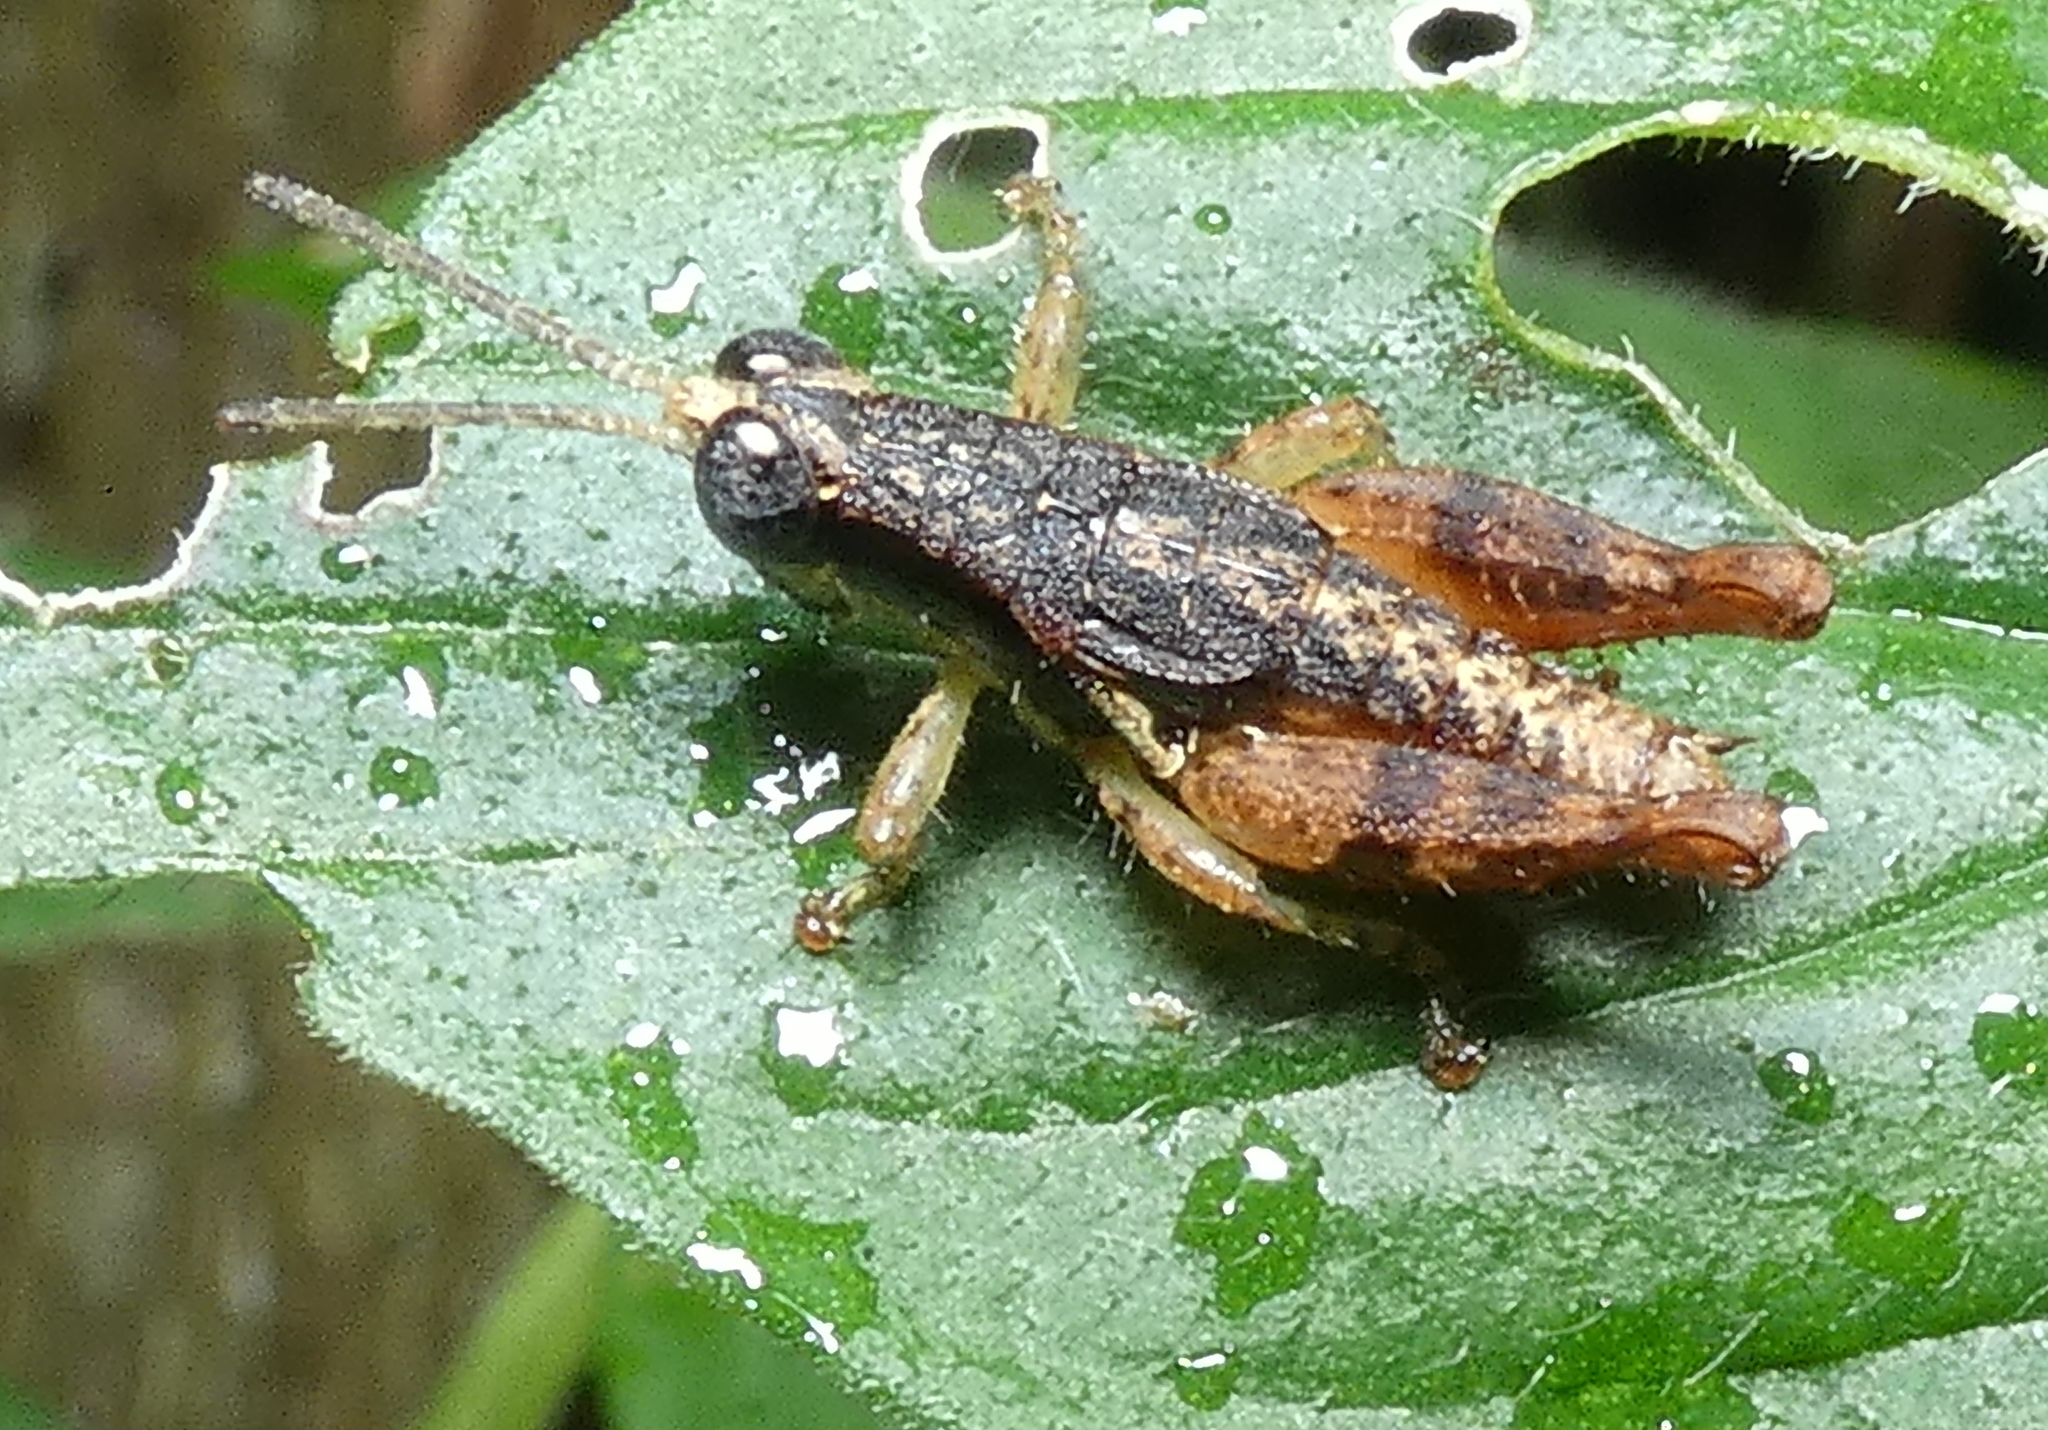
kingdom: Animalia
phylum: Arthropoda
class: Insecta
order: Orthoptera
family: Acrididae
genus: Eujivarus
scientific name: Eujivarus meridionalis
